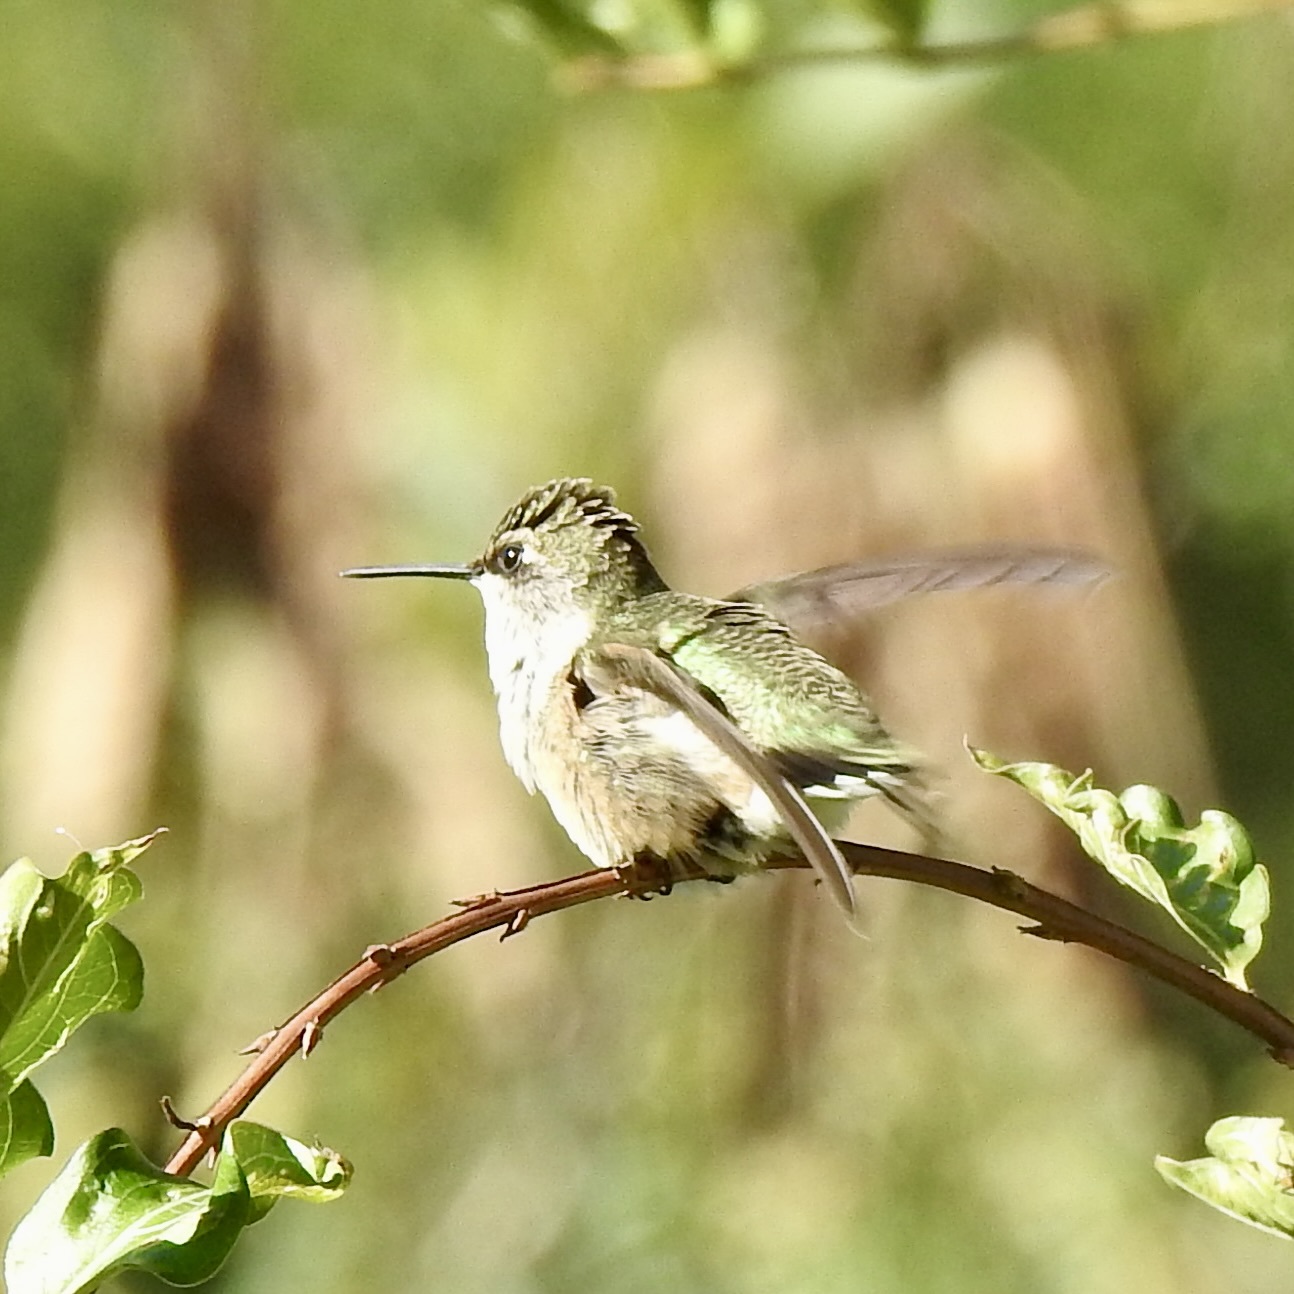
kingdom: Animalia
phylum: Chordata
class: Aves
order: Apodiformes
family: Trochilidae
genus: Archilochus
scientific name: Archilochus colubris
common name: Ruby-throated hummingbird
